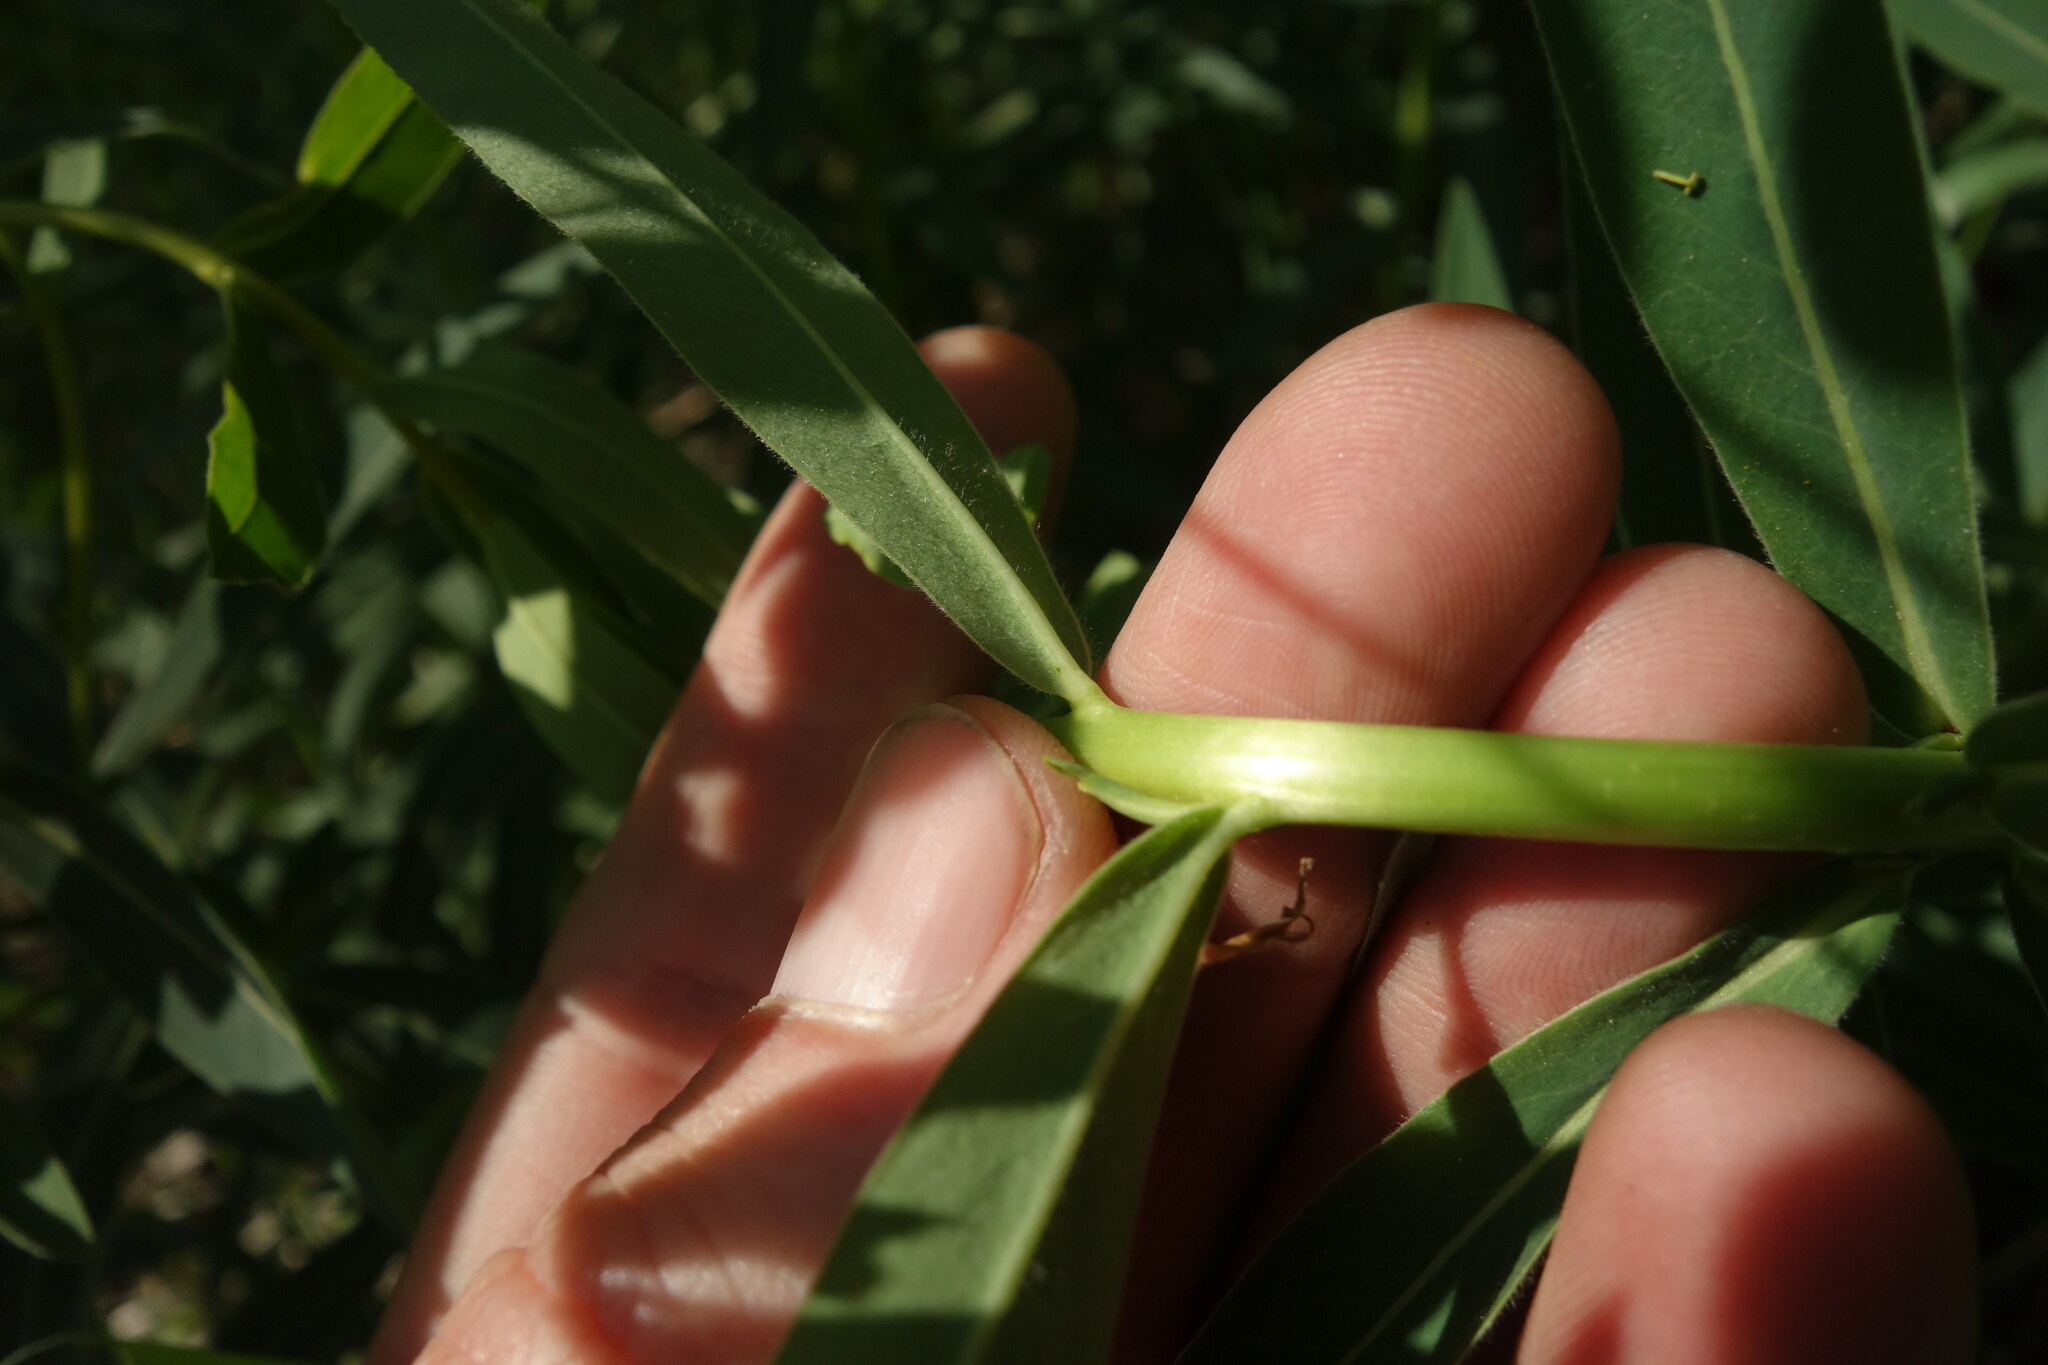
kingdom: Plantae
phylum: Tracheophyta
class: Magnoliopsida
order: Malpighiales
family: Euphorbiaceae
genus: Euphorbia
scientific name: Euphorbia semivillosa
